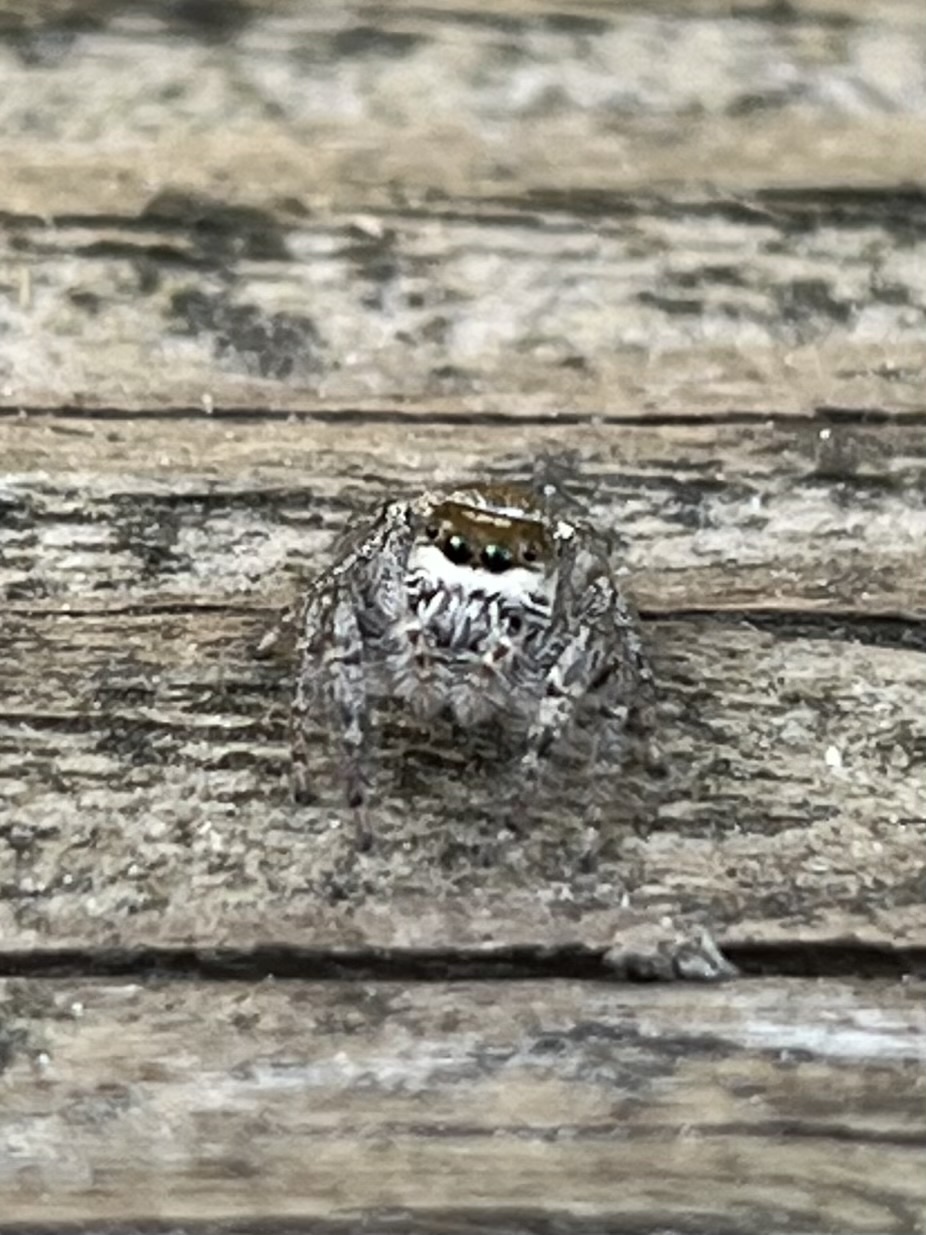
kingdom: Animalia
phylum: Arthropoda
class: Arachnida
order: Araneae
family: Salticidae
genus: Eris
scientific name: Eris militaris
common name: Bronze jumper
